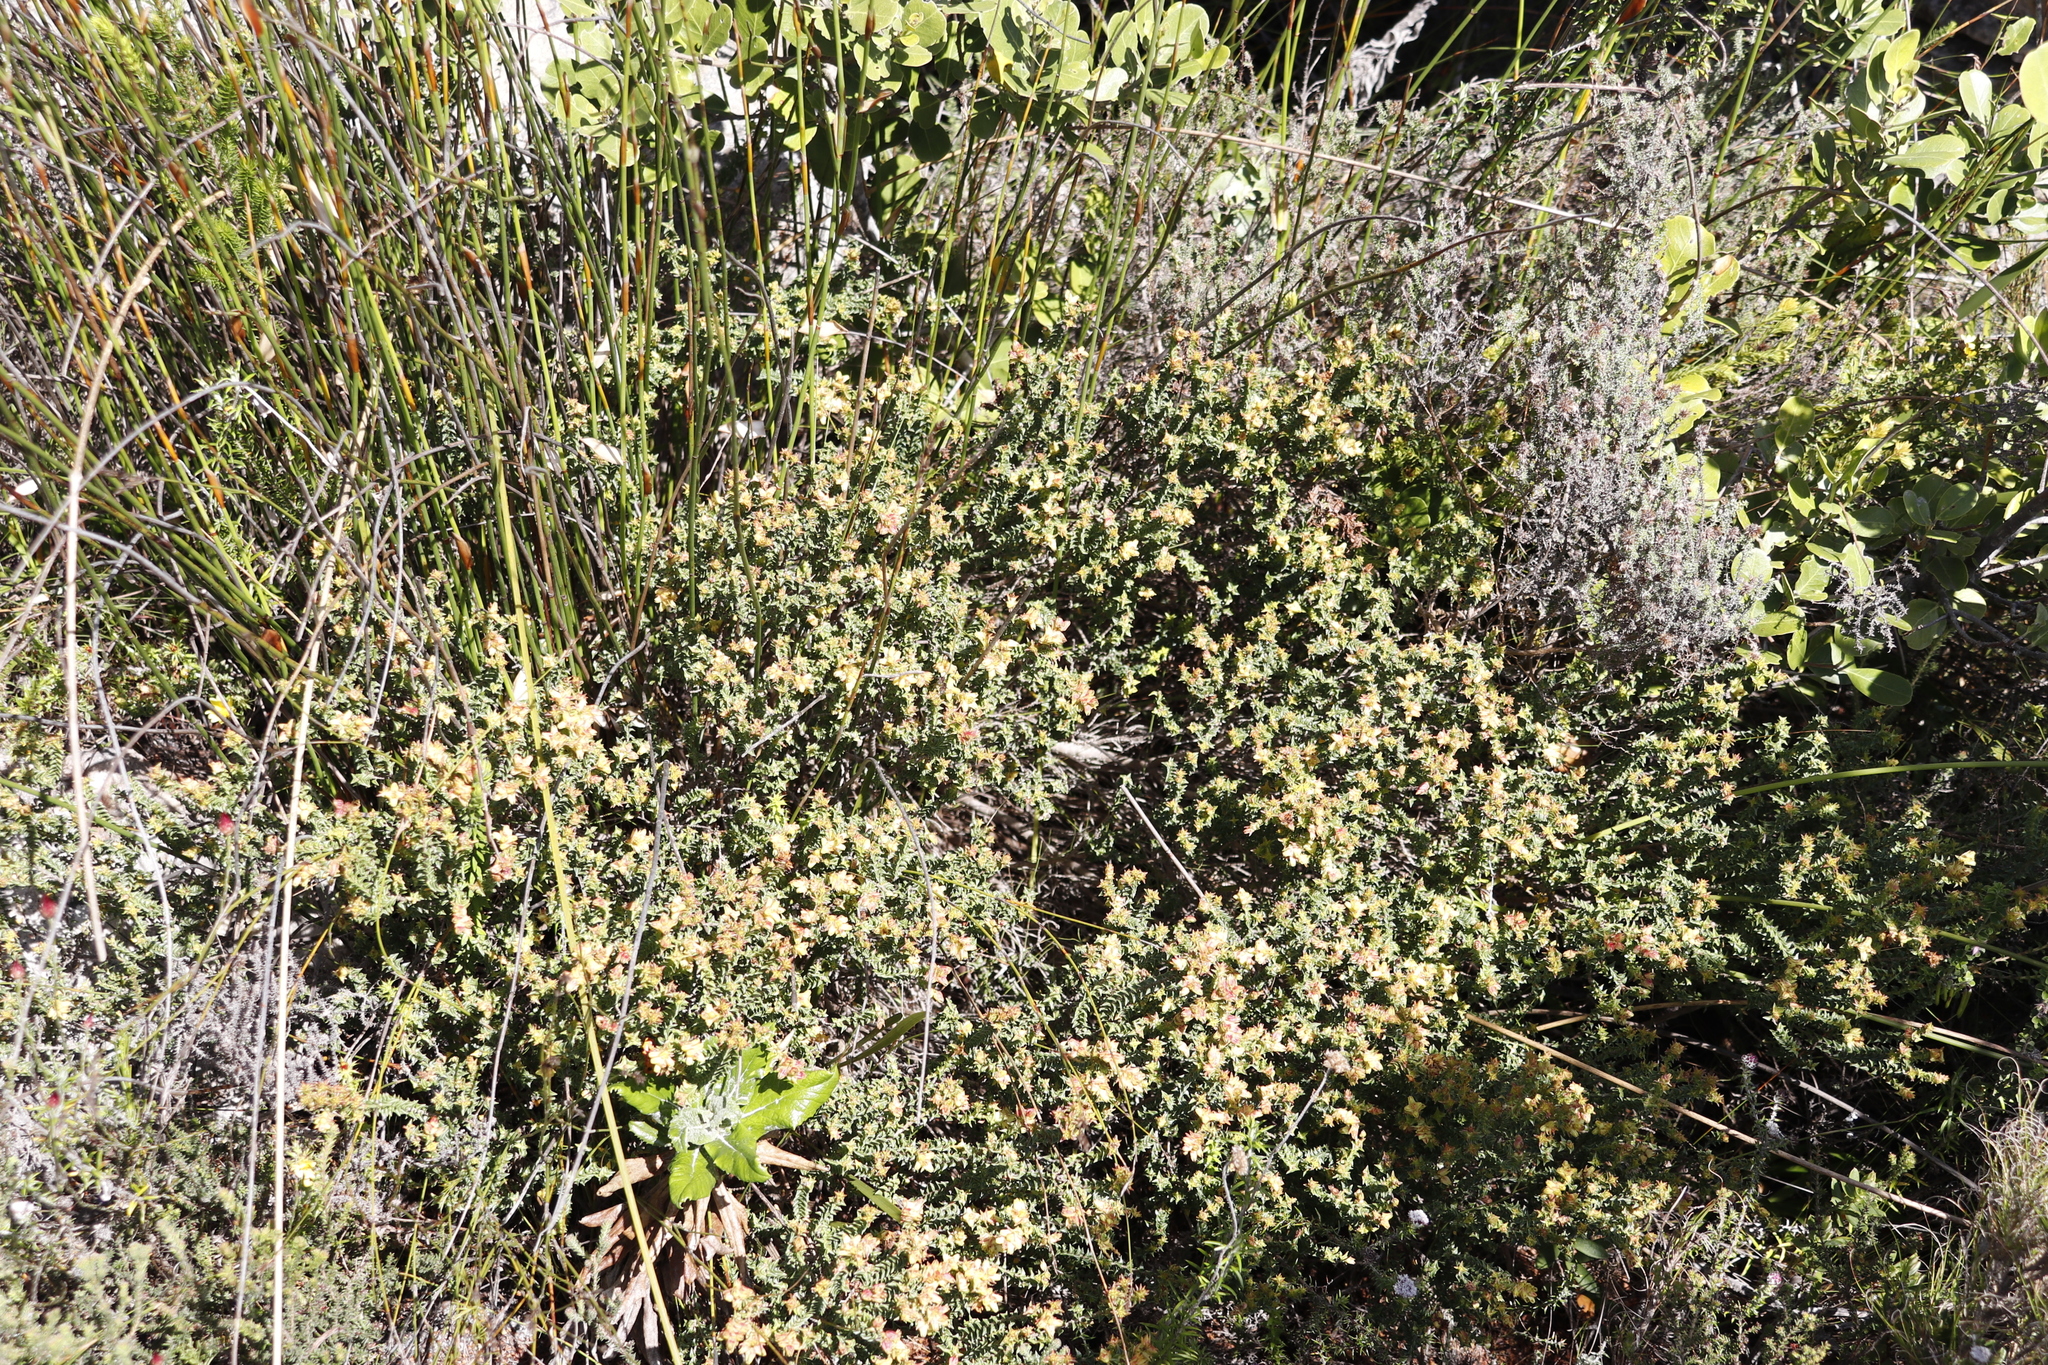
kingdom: Plantae
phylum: Tracheophyta
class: Magnoliopsida
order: Myrtales
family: Penaeaceae
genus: Penaea
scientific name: Penaea mucronata
